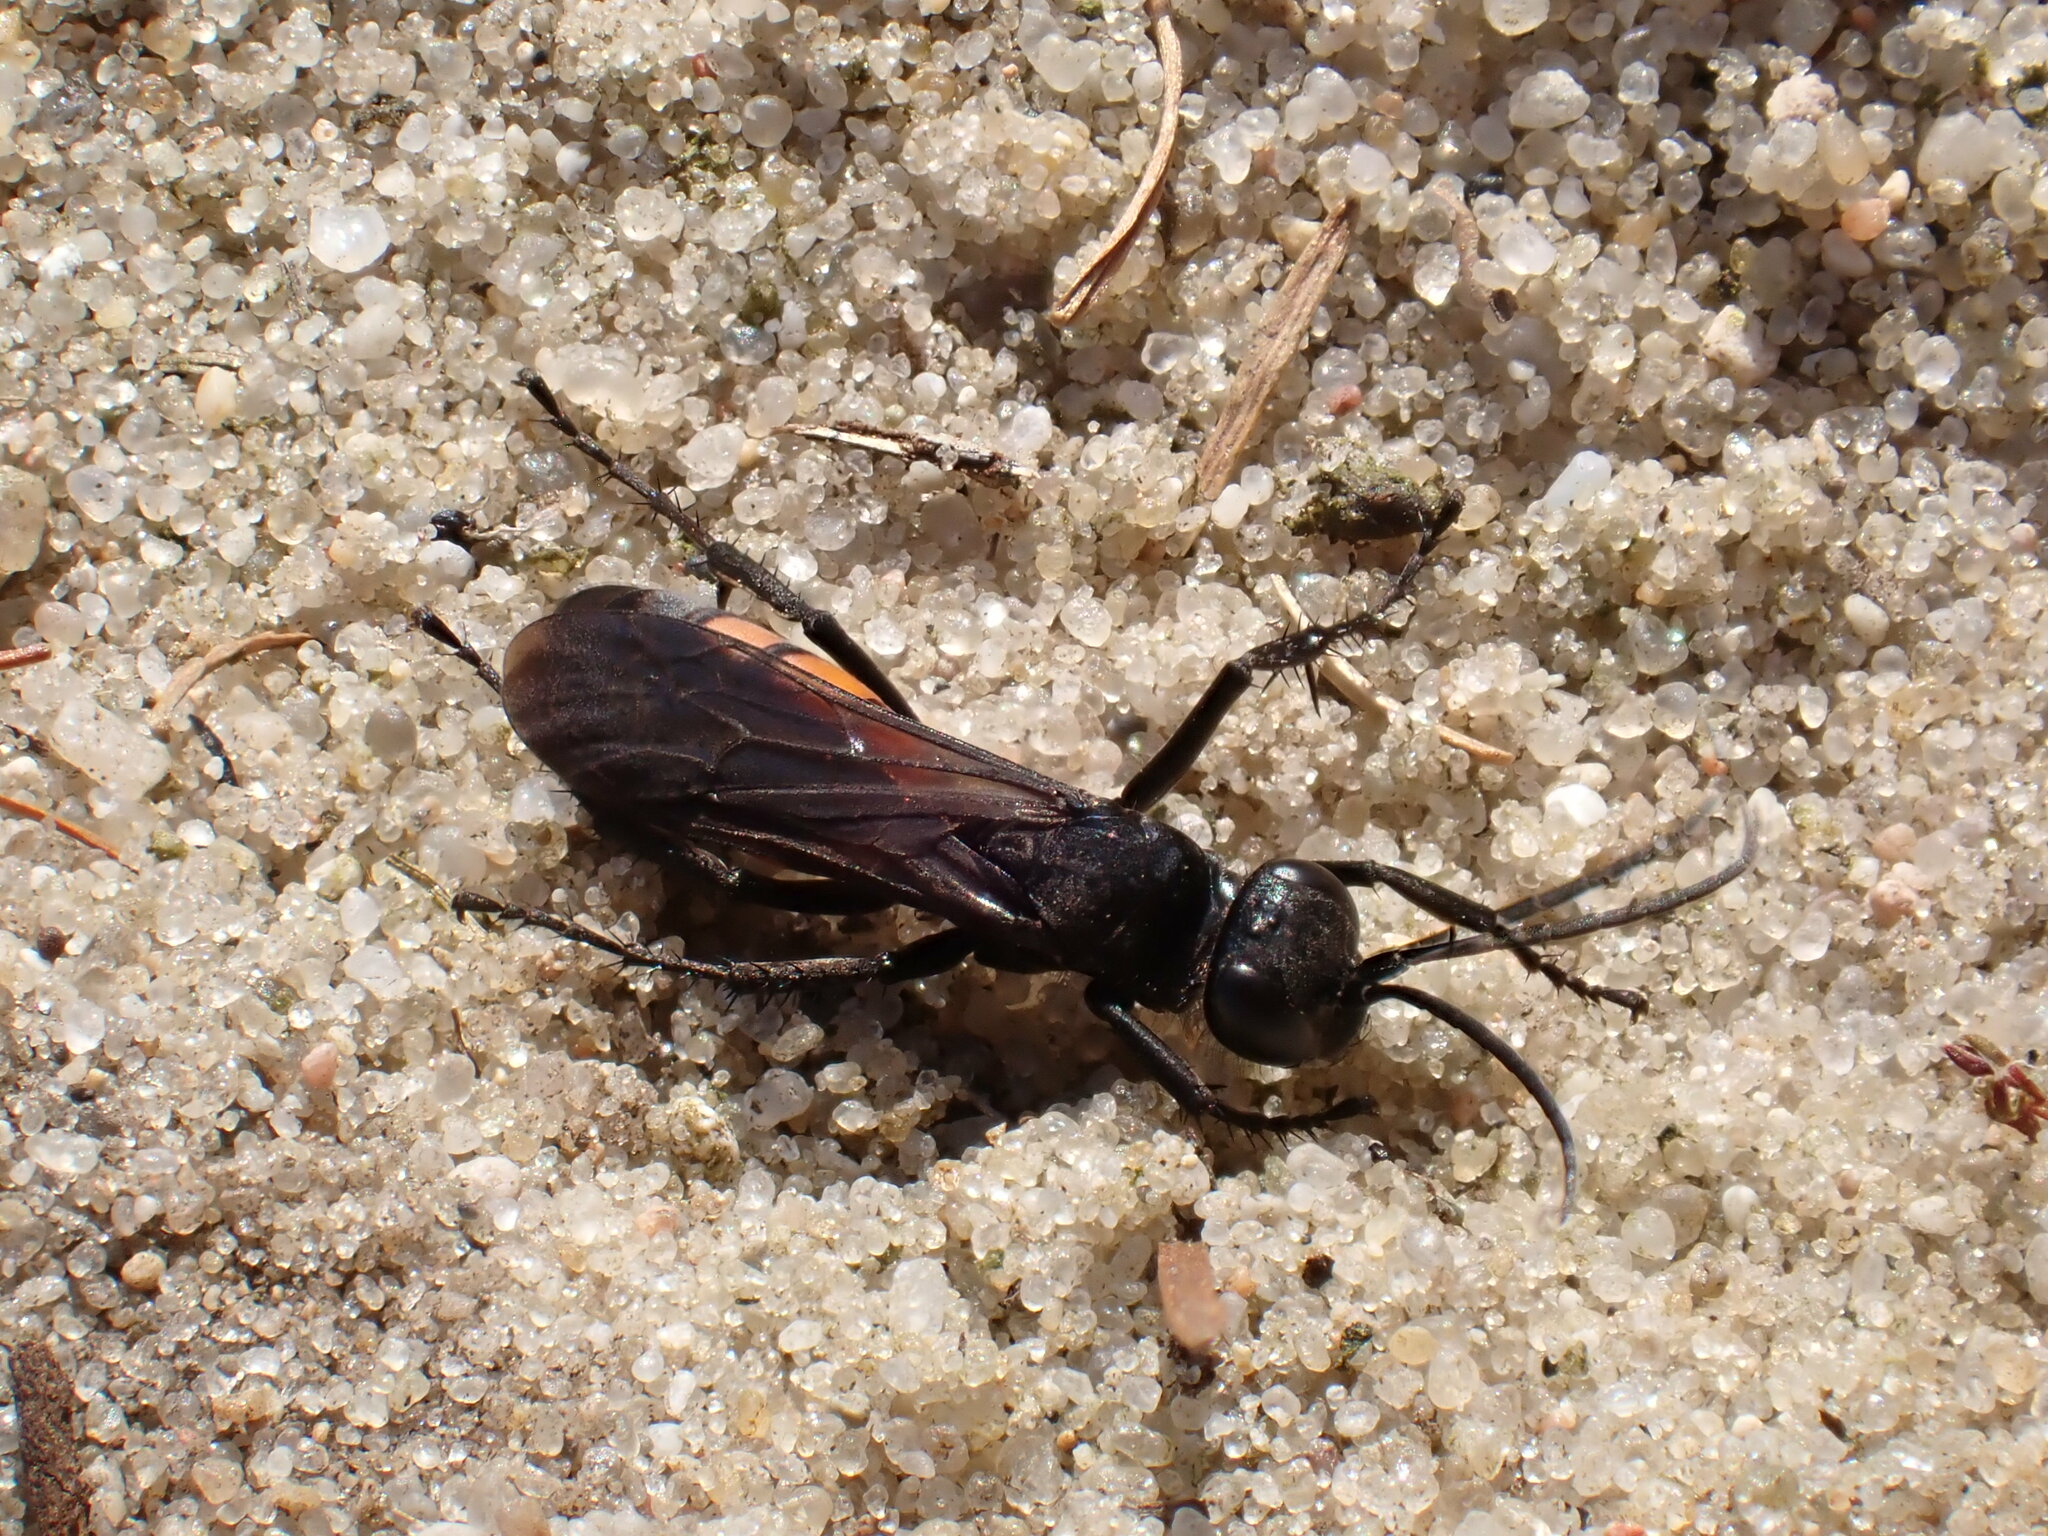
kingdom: Animalia
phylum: Arthropoda
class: Insecta
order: Hymenoptera
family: Pompilidae
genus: Anoplius
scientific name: Anoplius viaticus
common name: Black banded spider wasp
